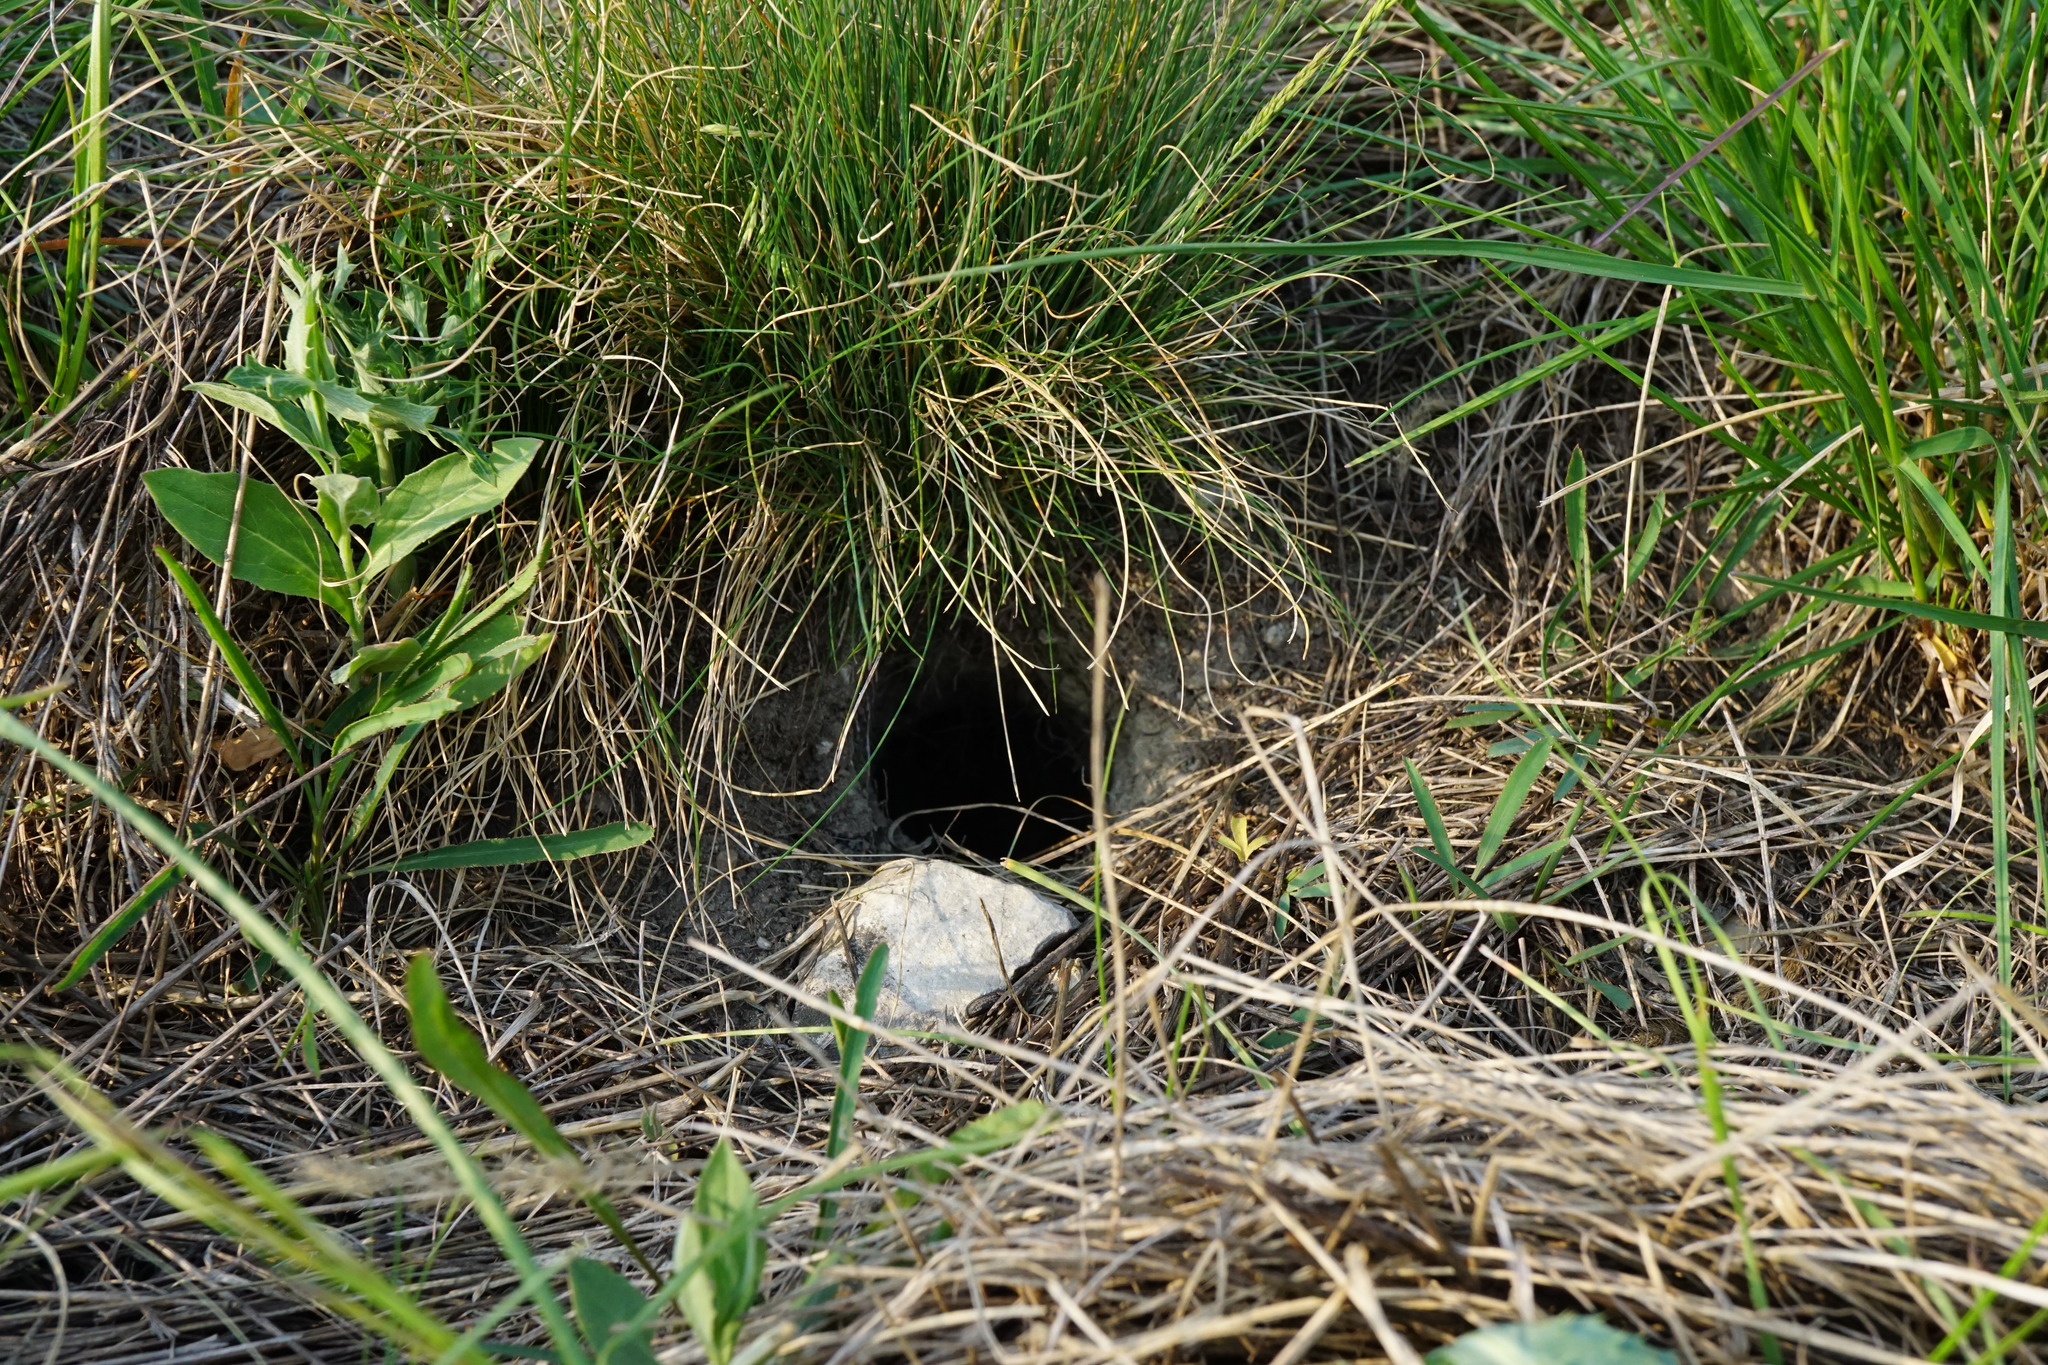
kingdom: Animalia
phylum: Chordata
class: Mammalia
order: Rodentia
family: Sciuridae
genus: Spermophilus
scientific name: Spermophilus citellus
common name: European ground squirrel
